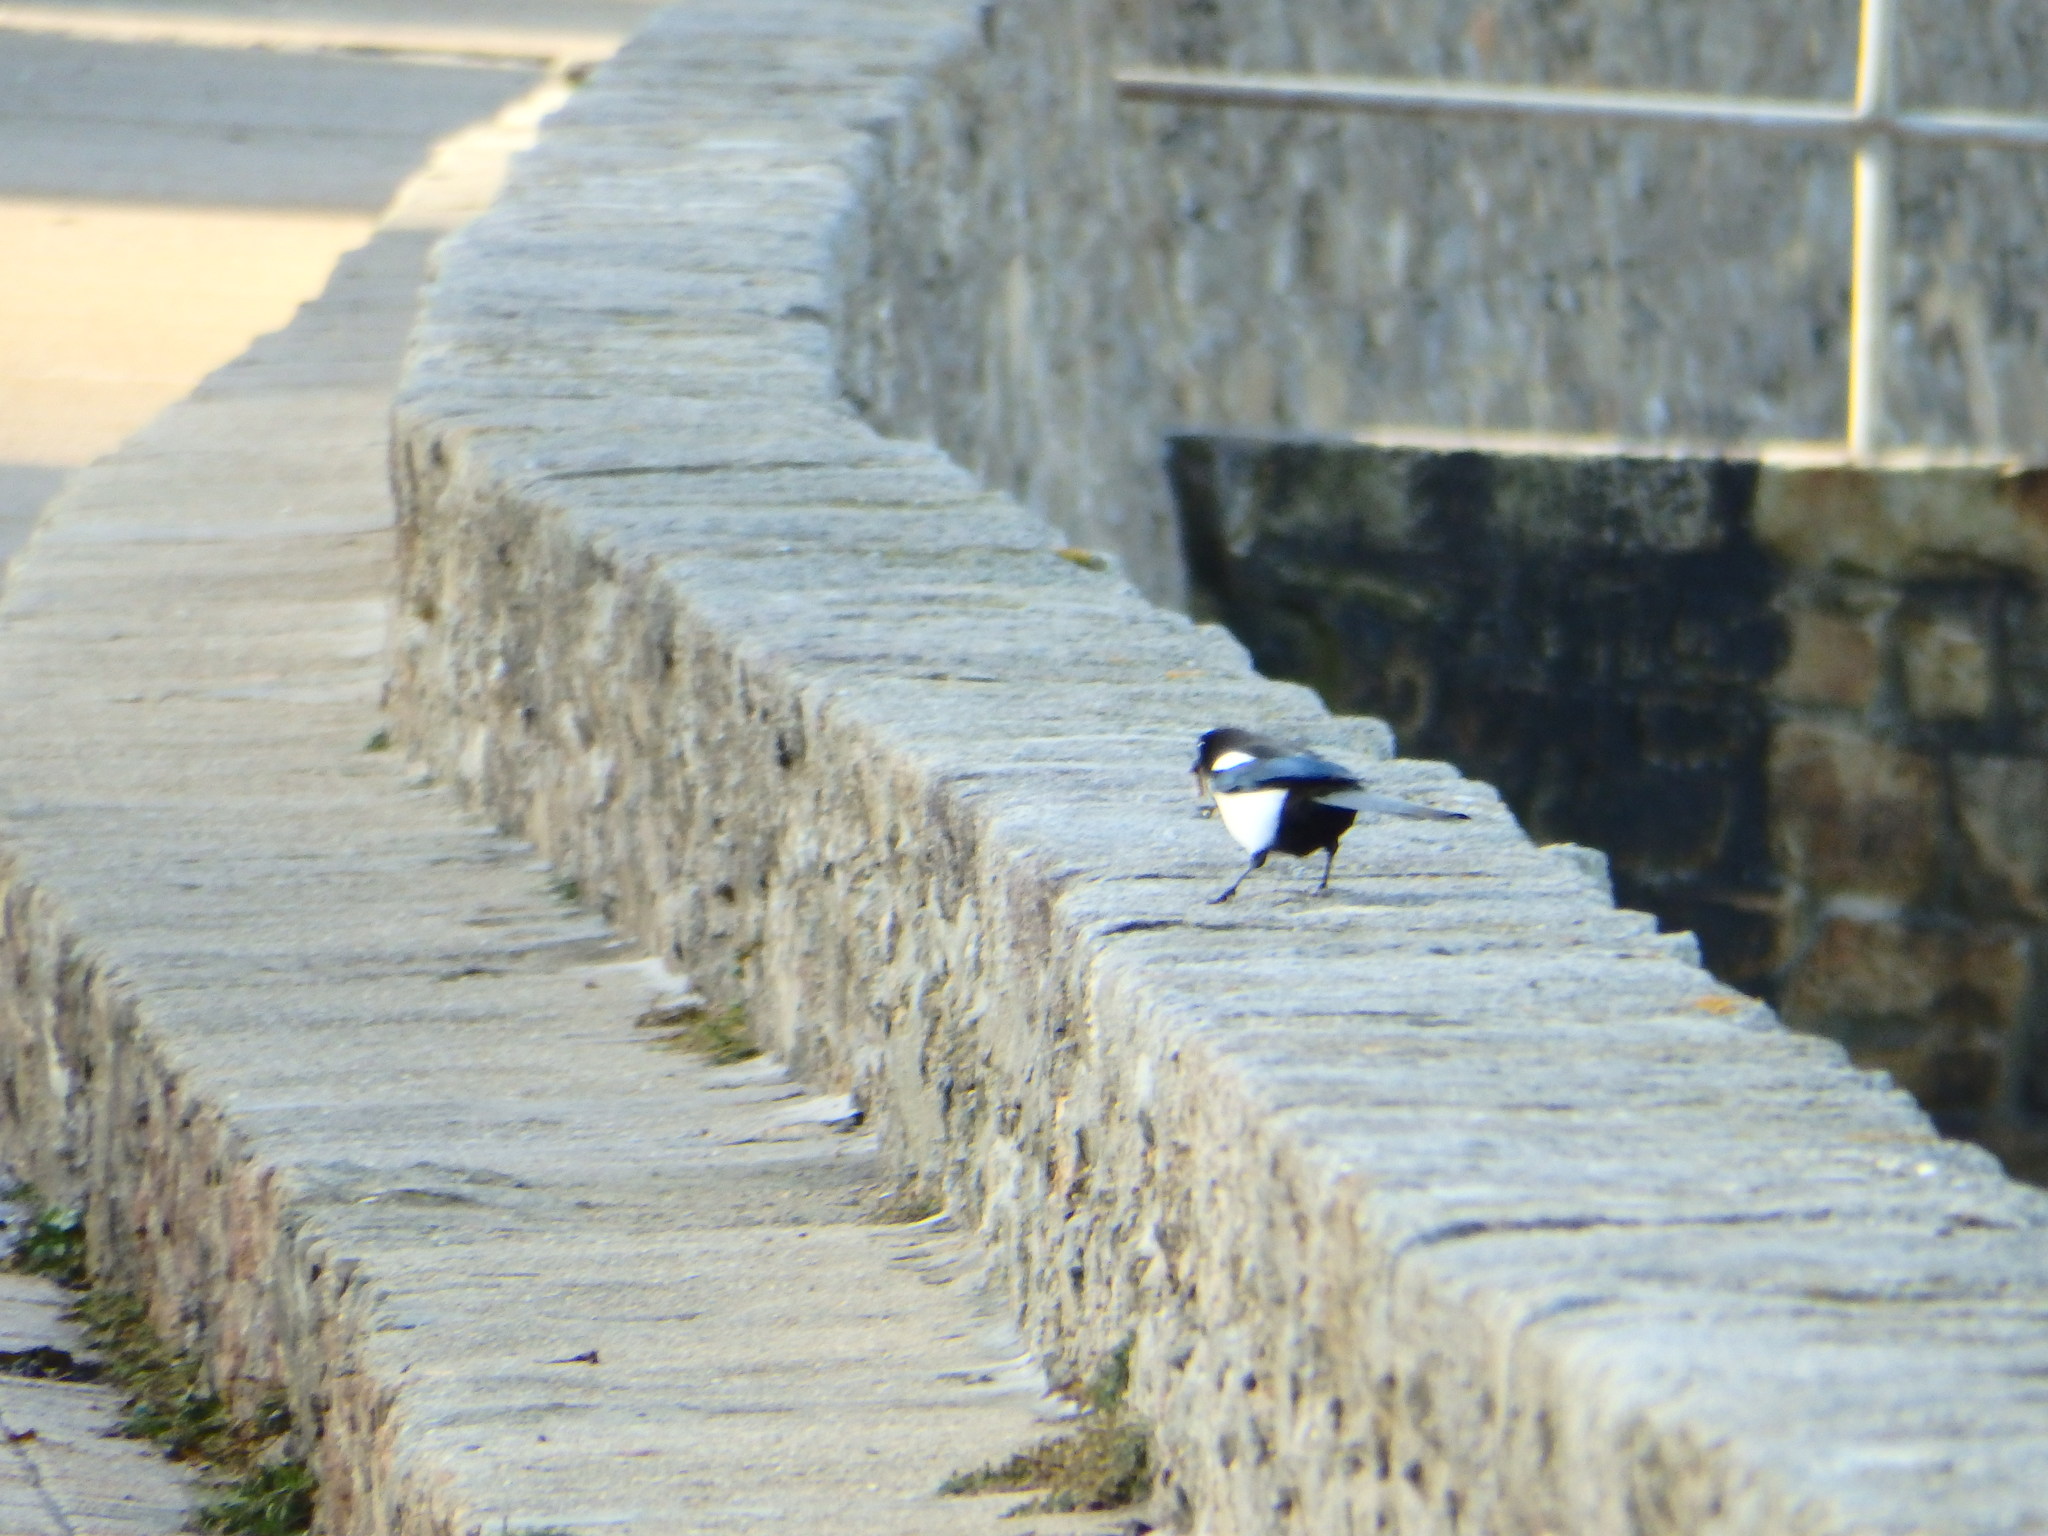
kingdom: Animalia
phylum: Chordata
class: Aves
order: Passeriformes
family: Corvidae
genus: Pica
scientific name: Pica pica
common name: Eurasian magpie
